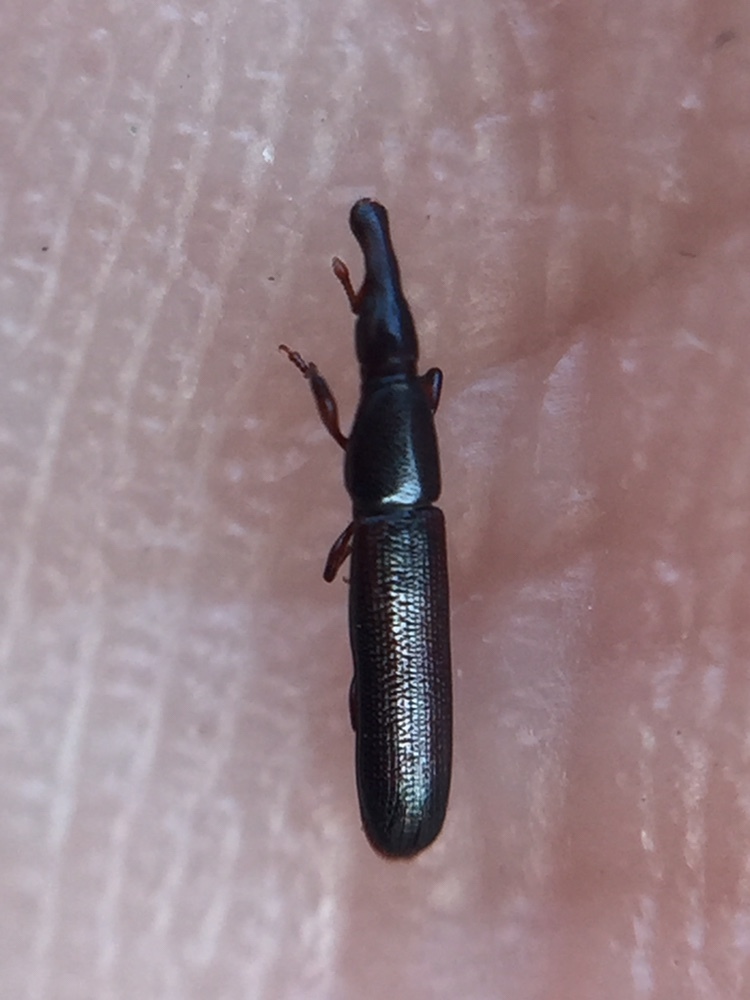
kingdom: Animalia
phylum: Arthropoda
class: Insecta
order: Coleoptera
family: Curculionidae
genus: Stenotrupis
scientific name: Stenotrupis wollastoniana
